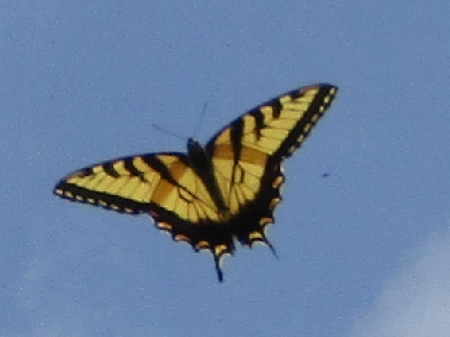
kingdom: Animalia
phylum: Arthropoda
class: Insecta
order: Lepidoptera
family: Papilionidae
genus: Papilio
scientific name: Papilio glaucus
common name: Tiger swallowtail
